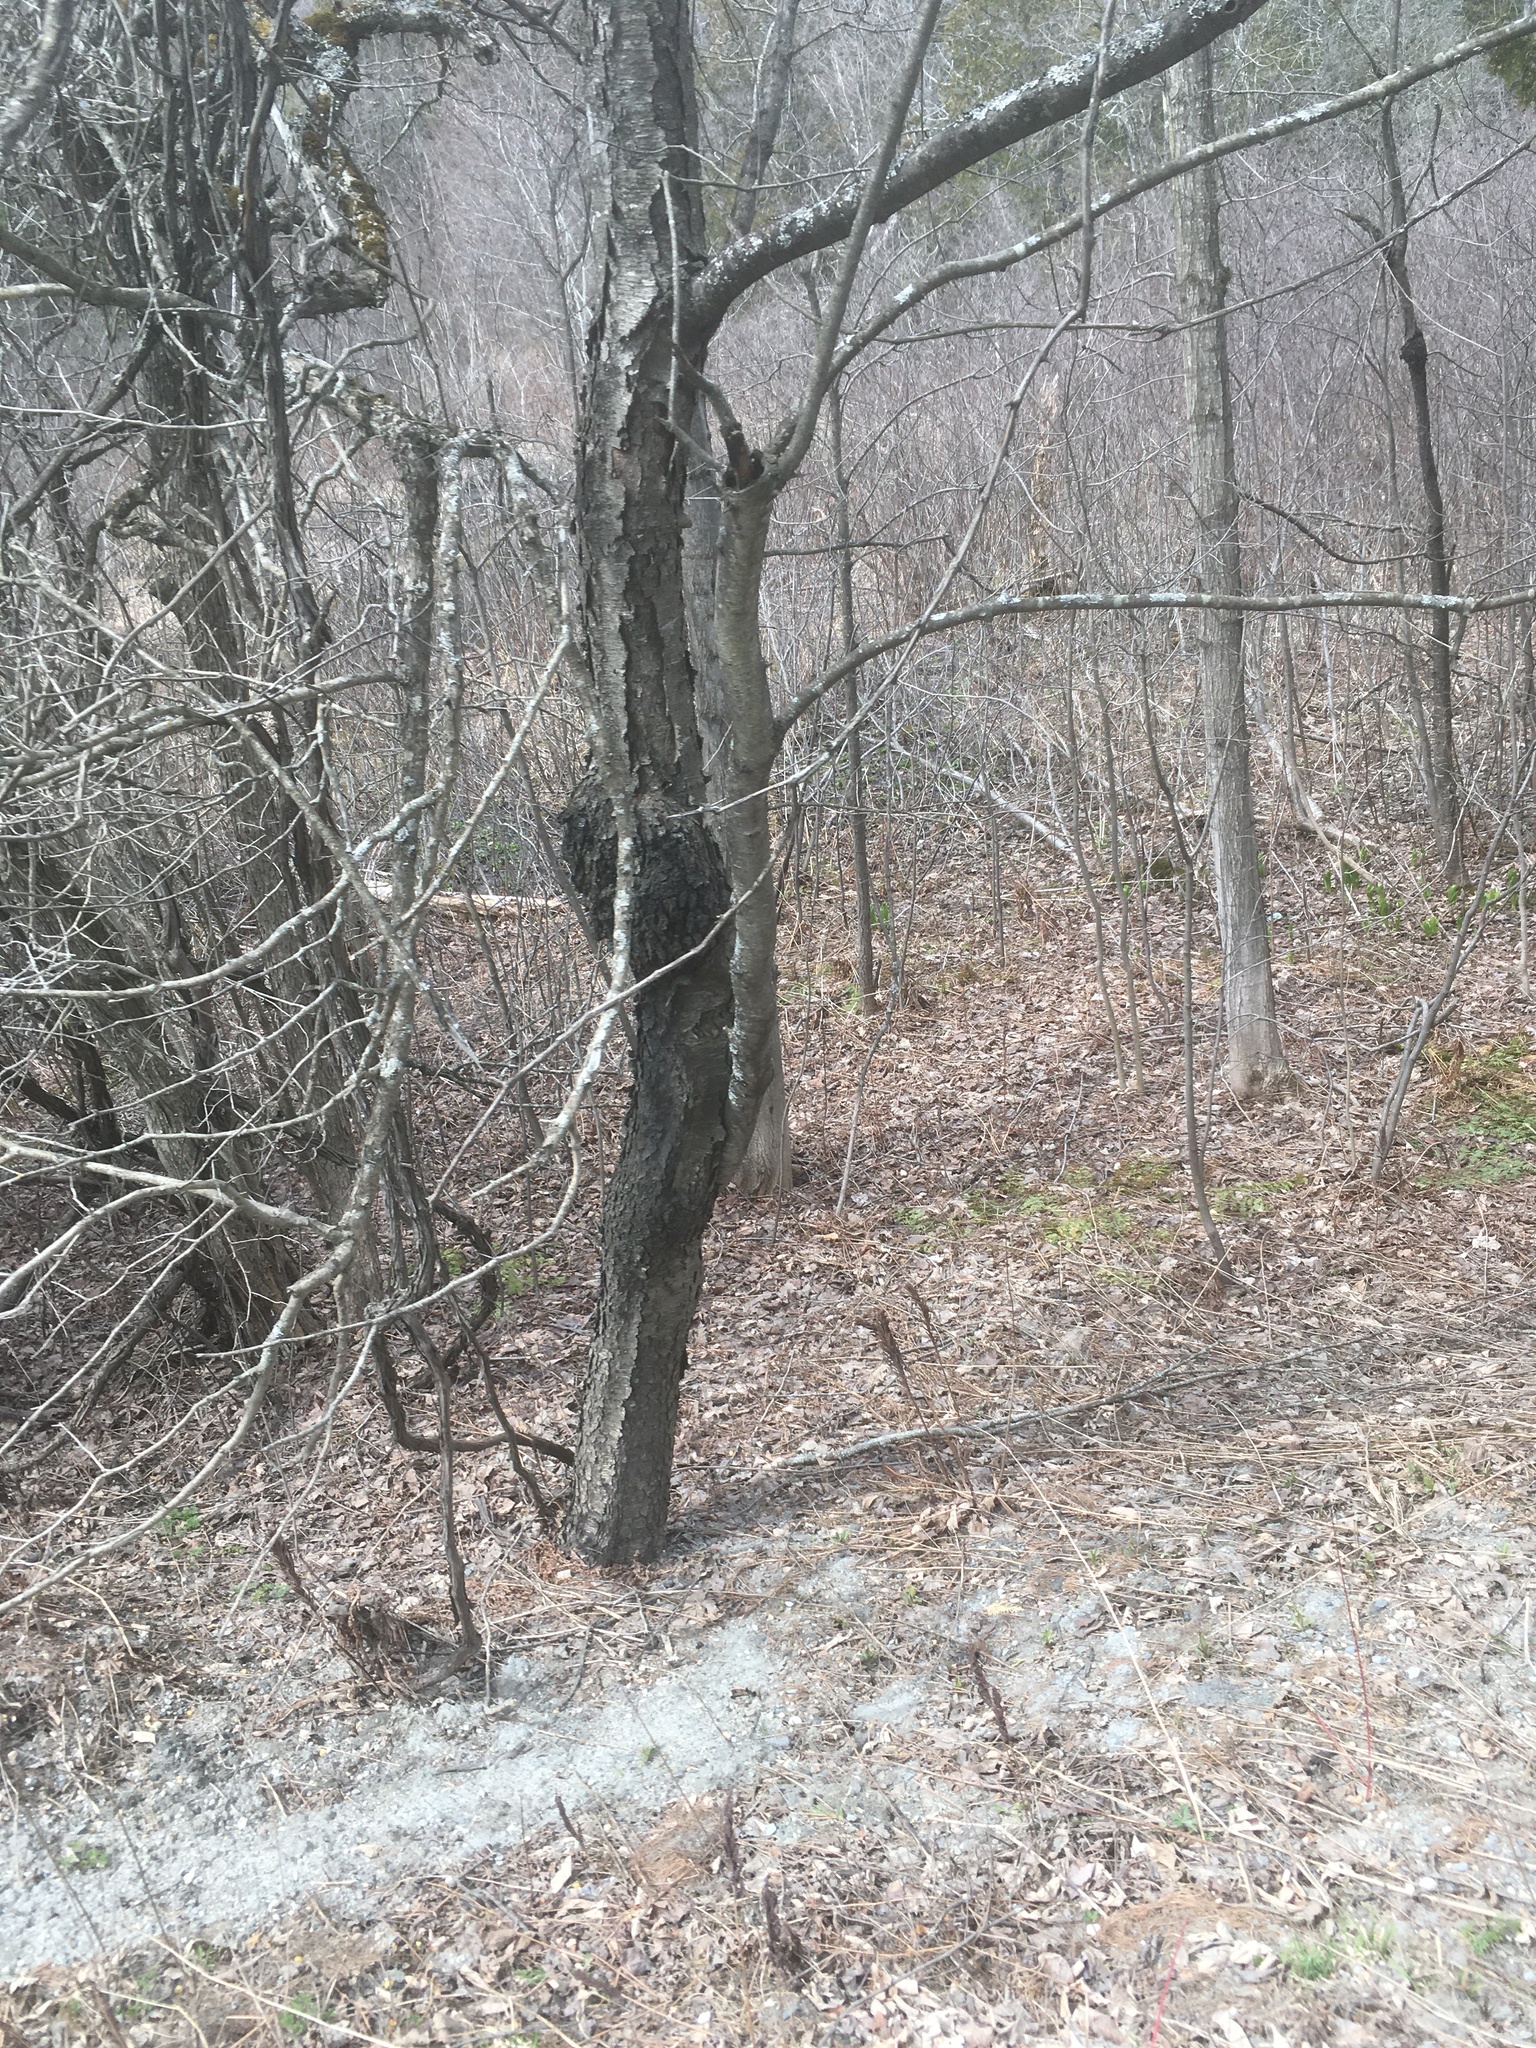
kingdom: Fungi
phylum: Ascomycota
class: Dothideomycetes
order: Venturiales
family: Venturiaceae
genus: Apiosporina
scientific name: Apiosporina morbosa
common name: Black knot
